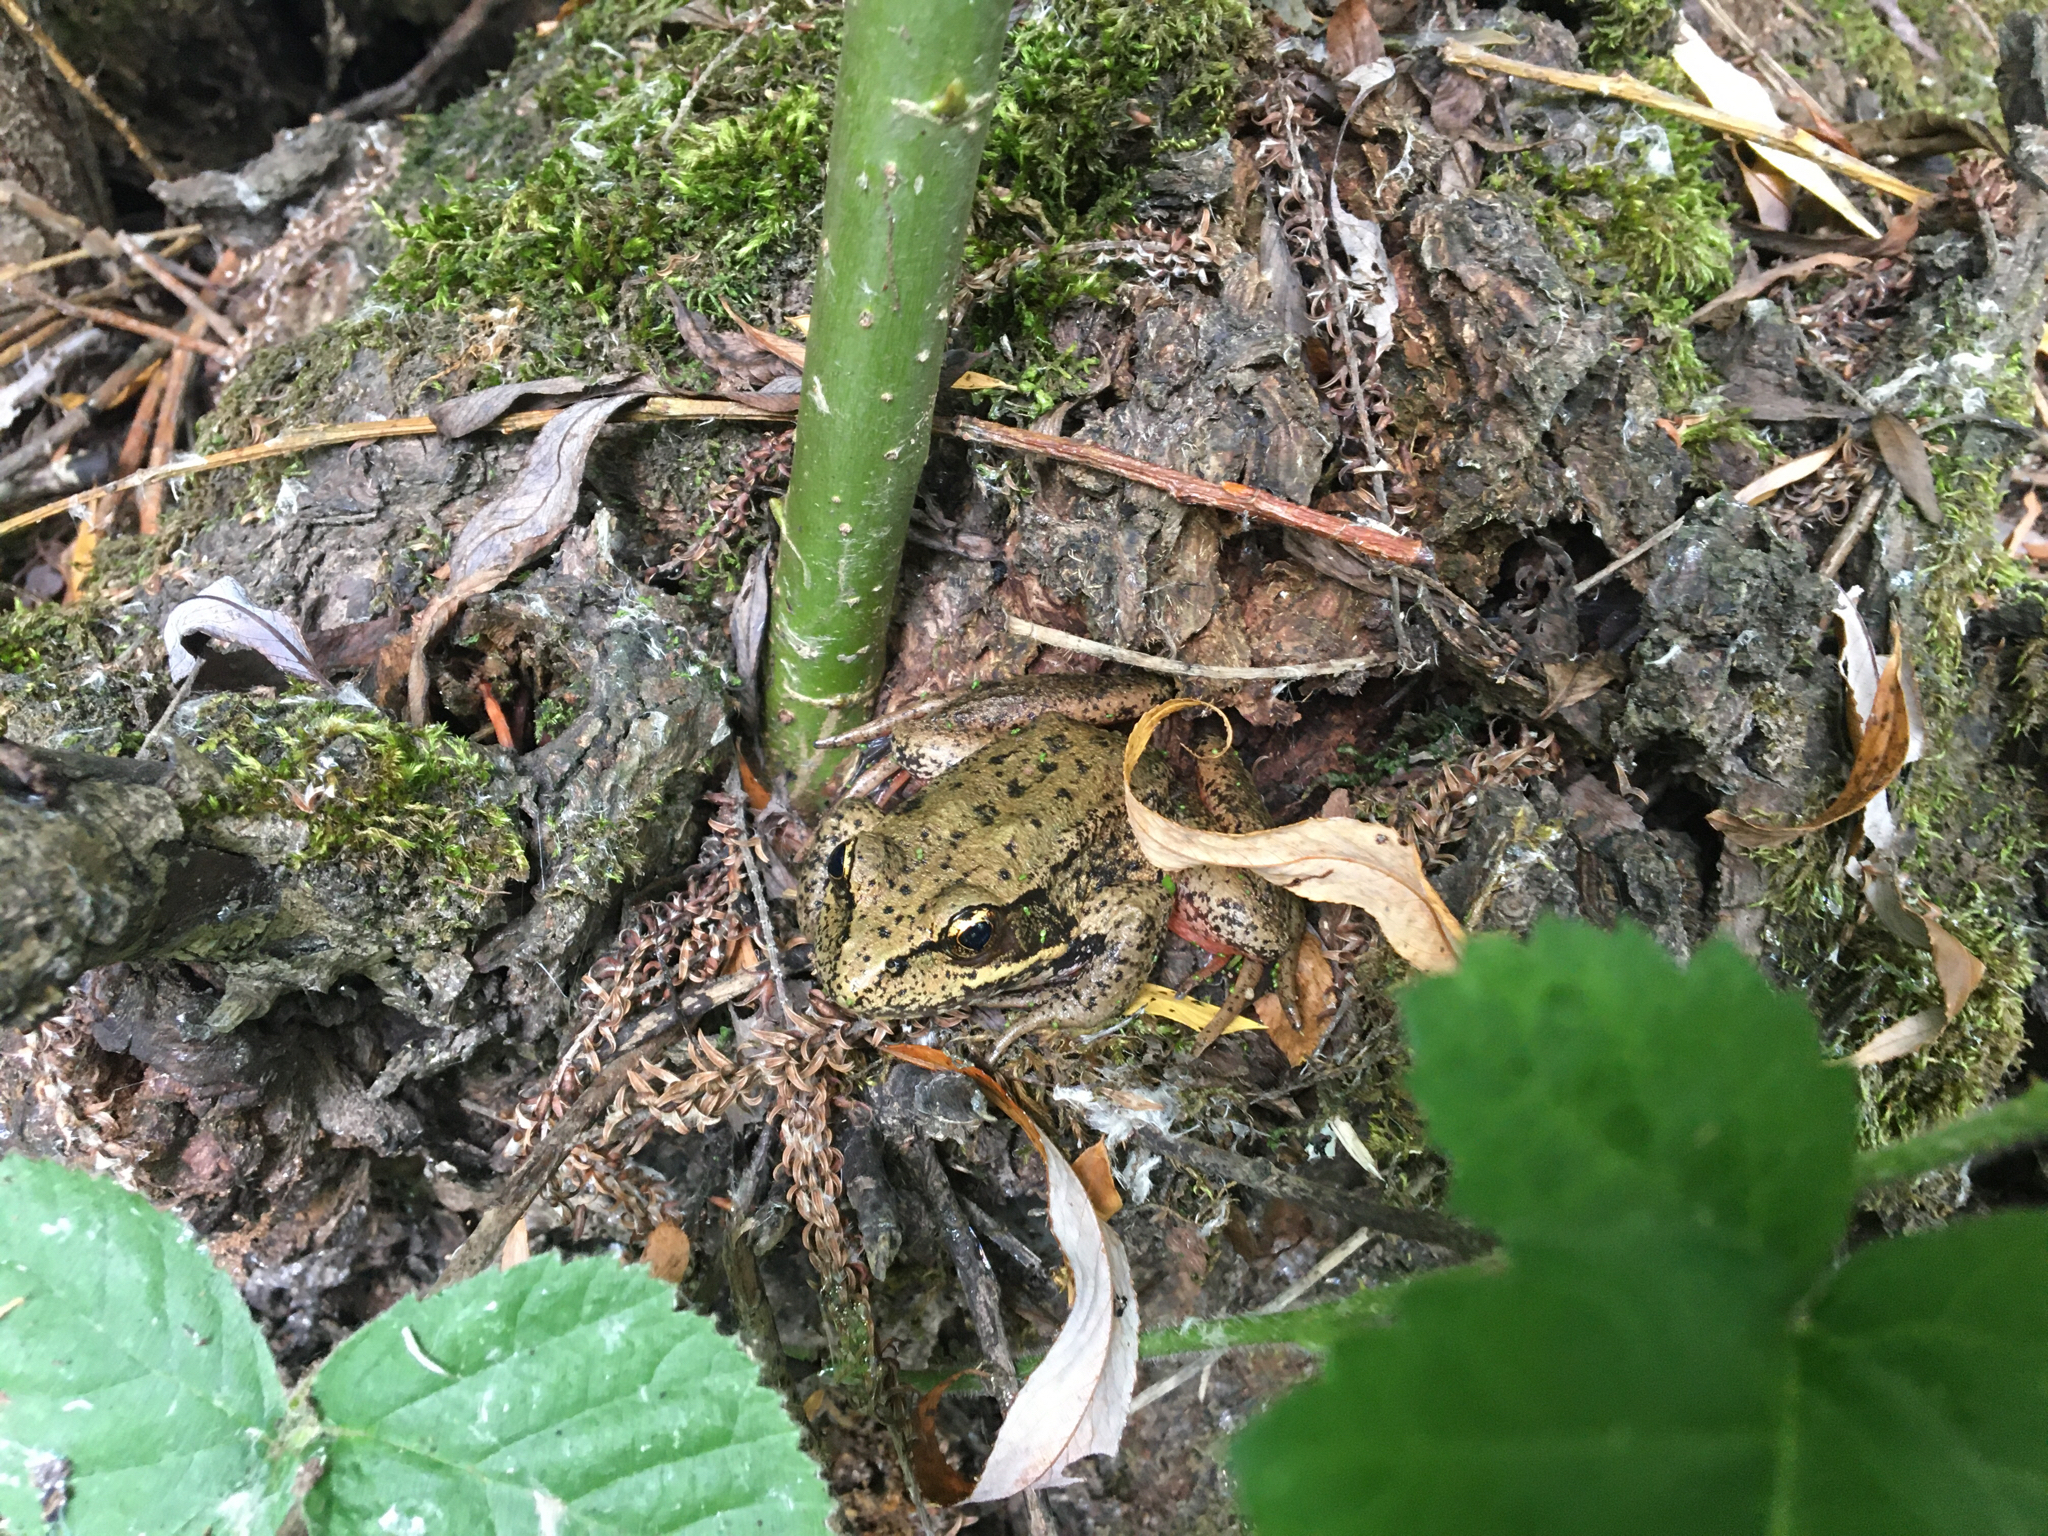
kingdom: Animalia
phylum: Chordata
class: Amphibia
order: Anura
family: Ranidae
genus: Rana
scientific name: Rana aurora
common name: Red-legged frog
